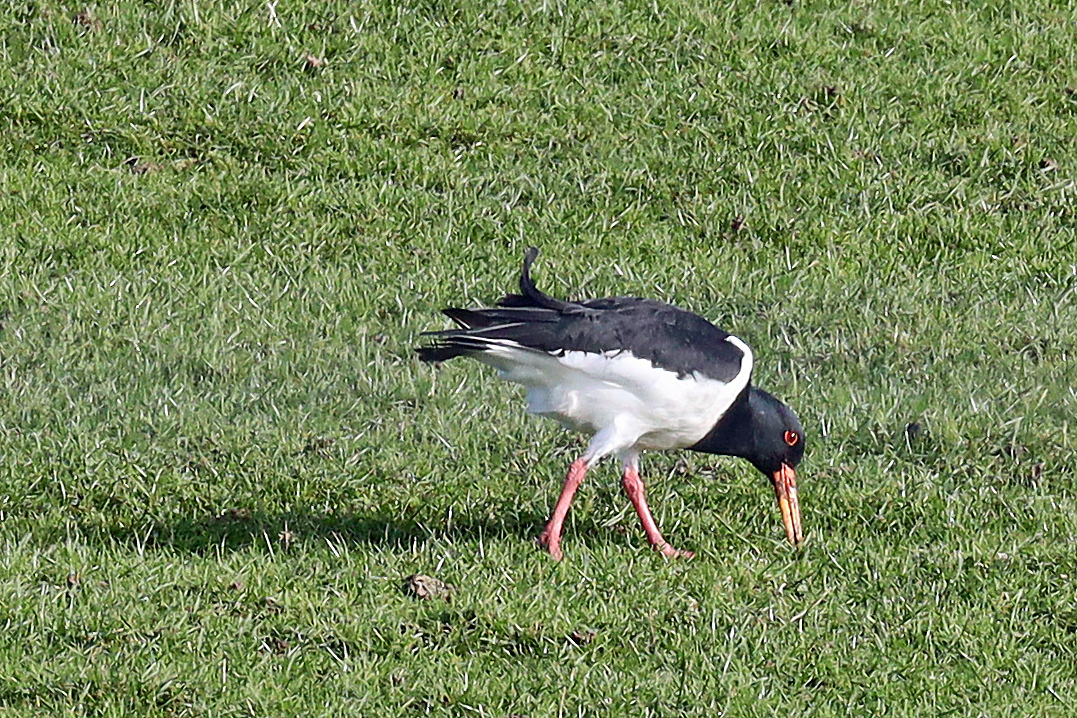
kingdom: Animalia
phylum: Chordata
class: Aves
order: Charadriiformes
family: Haematopodidae
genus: Haematopus
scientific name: Haematopus ostralegus
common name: Eurasian oystercatcher
